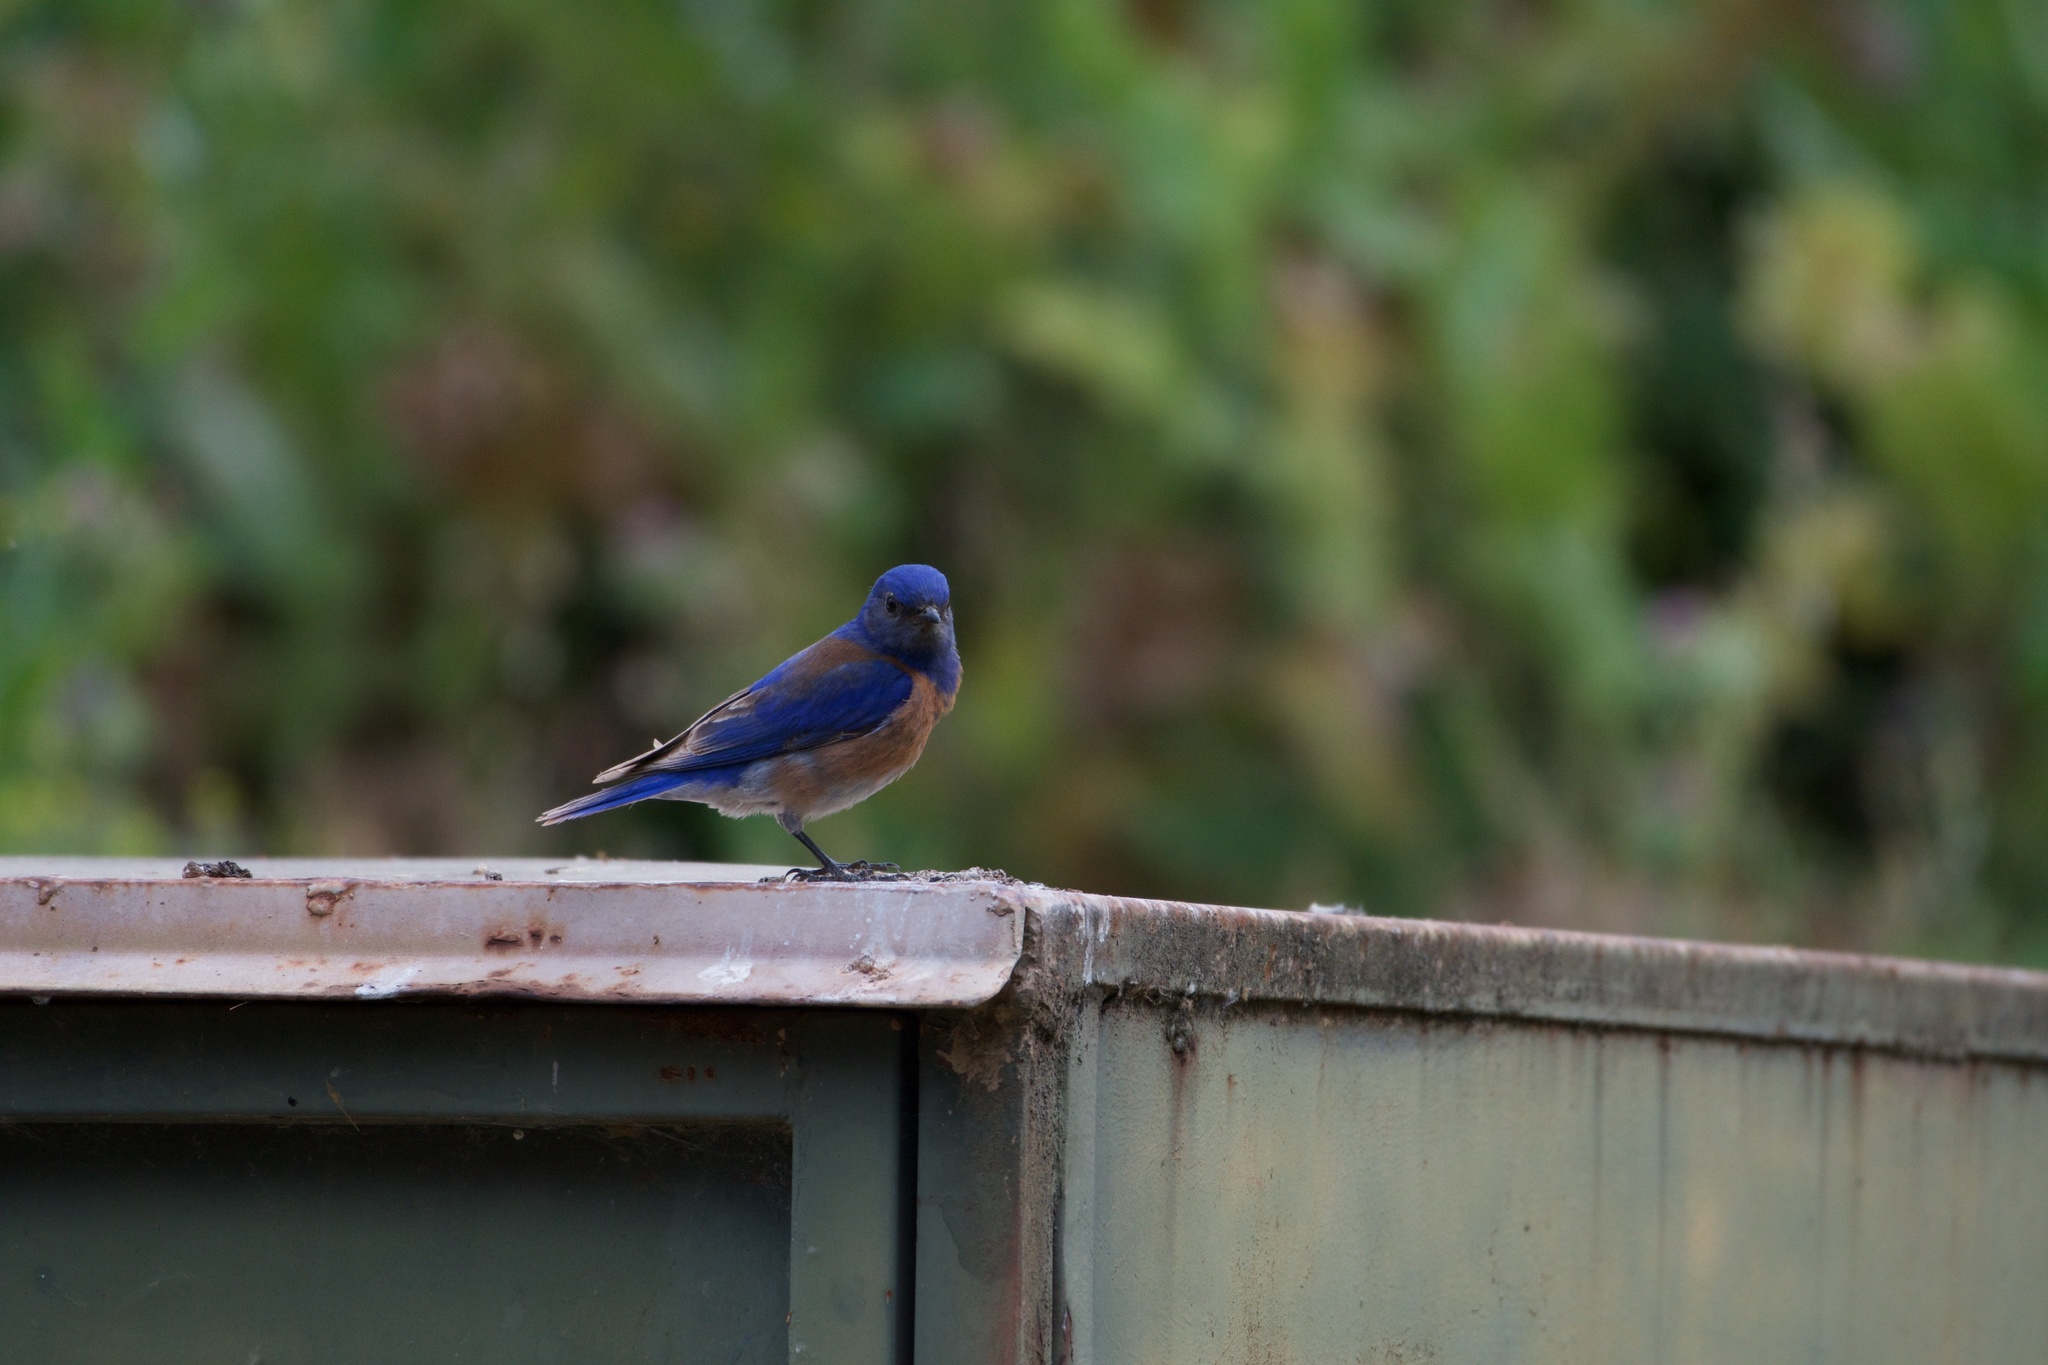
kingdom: Animalia
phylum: Chordata
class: Aves
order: Passeriformes
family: Turdidae
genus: Sialia
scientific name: Sialia mexicana
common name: Western bluebird
